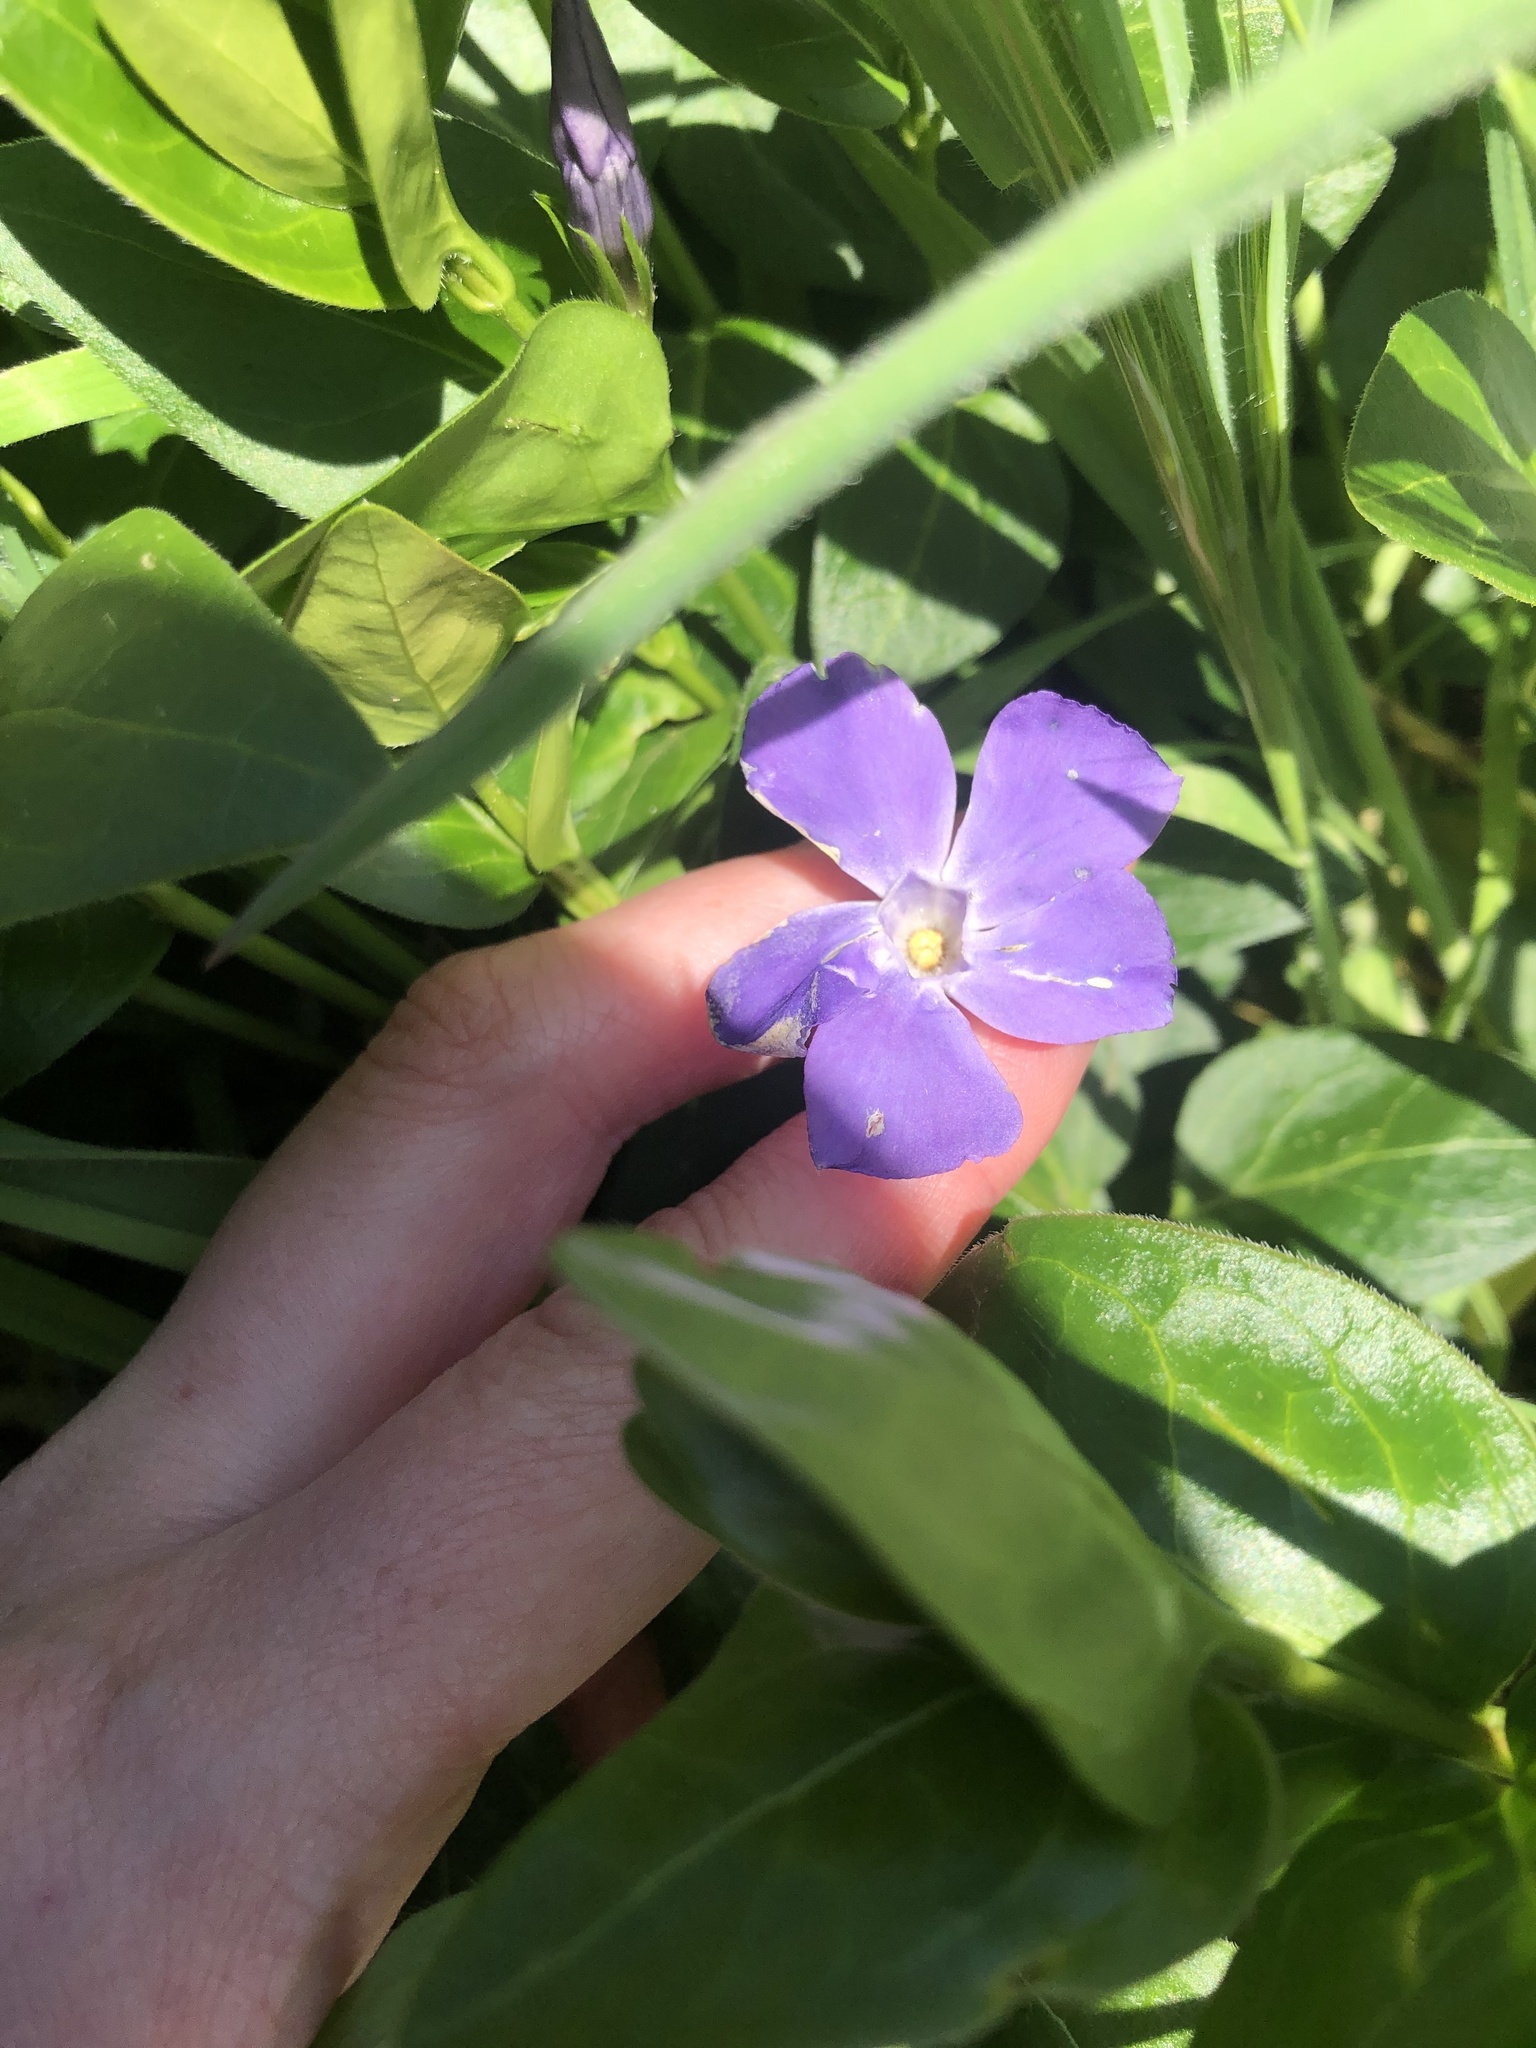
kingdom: Plantae
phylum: Tracheophyta
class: Magnoliopsida
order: Gentianales
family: Apocynaceae
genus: Vinca
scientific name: Vinca major
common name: Greater periwinkle
